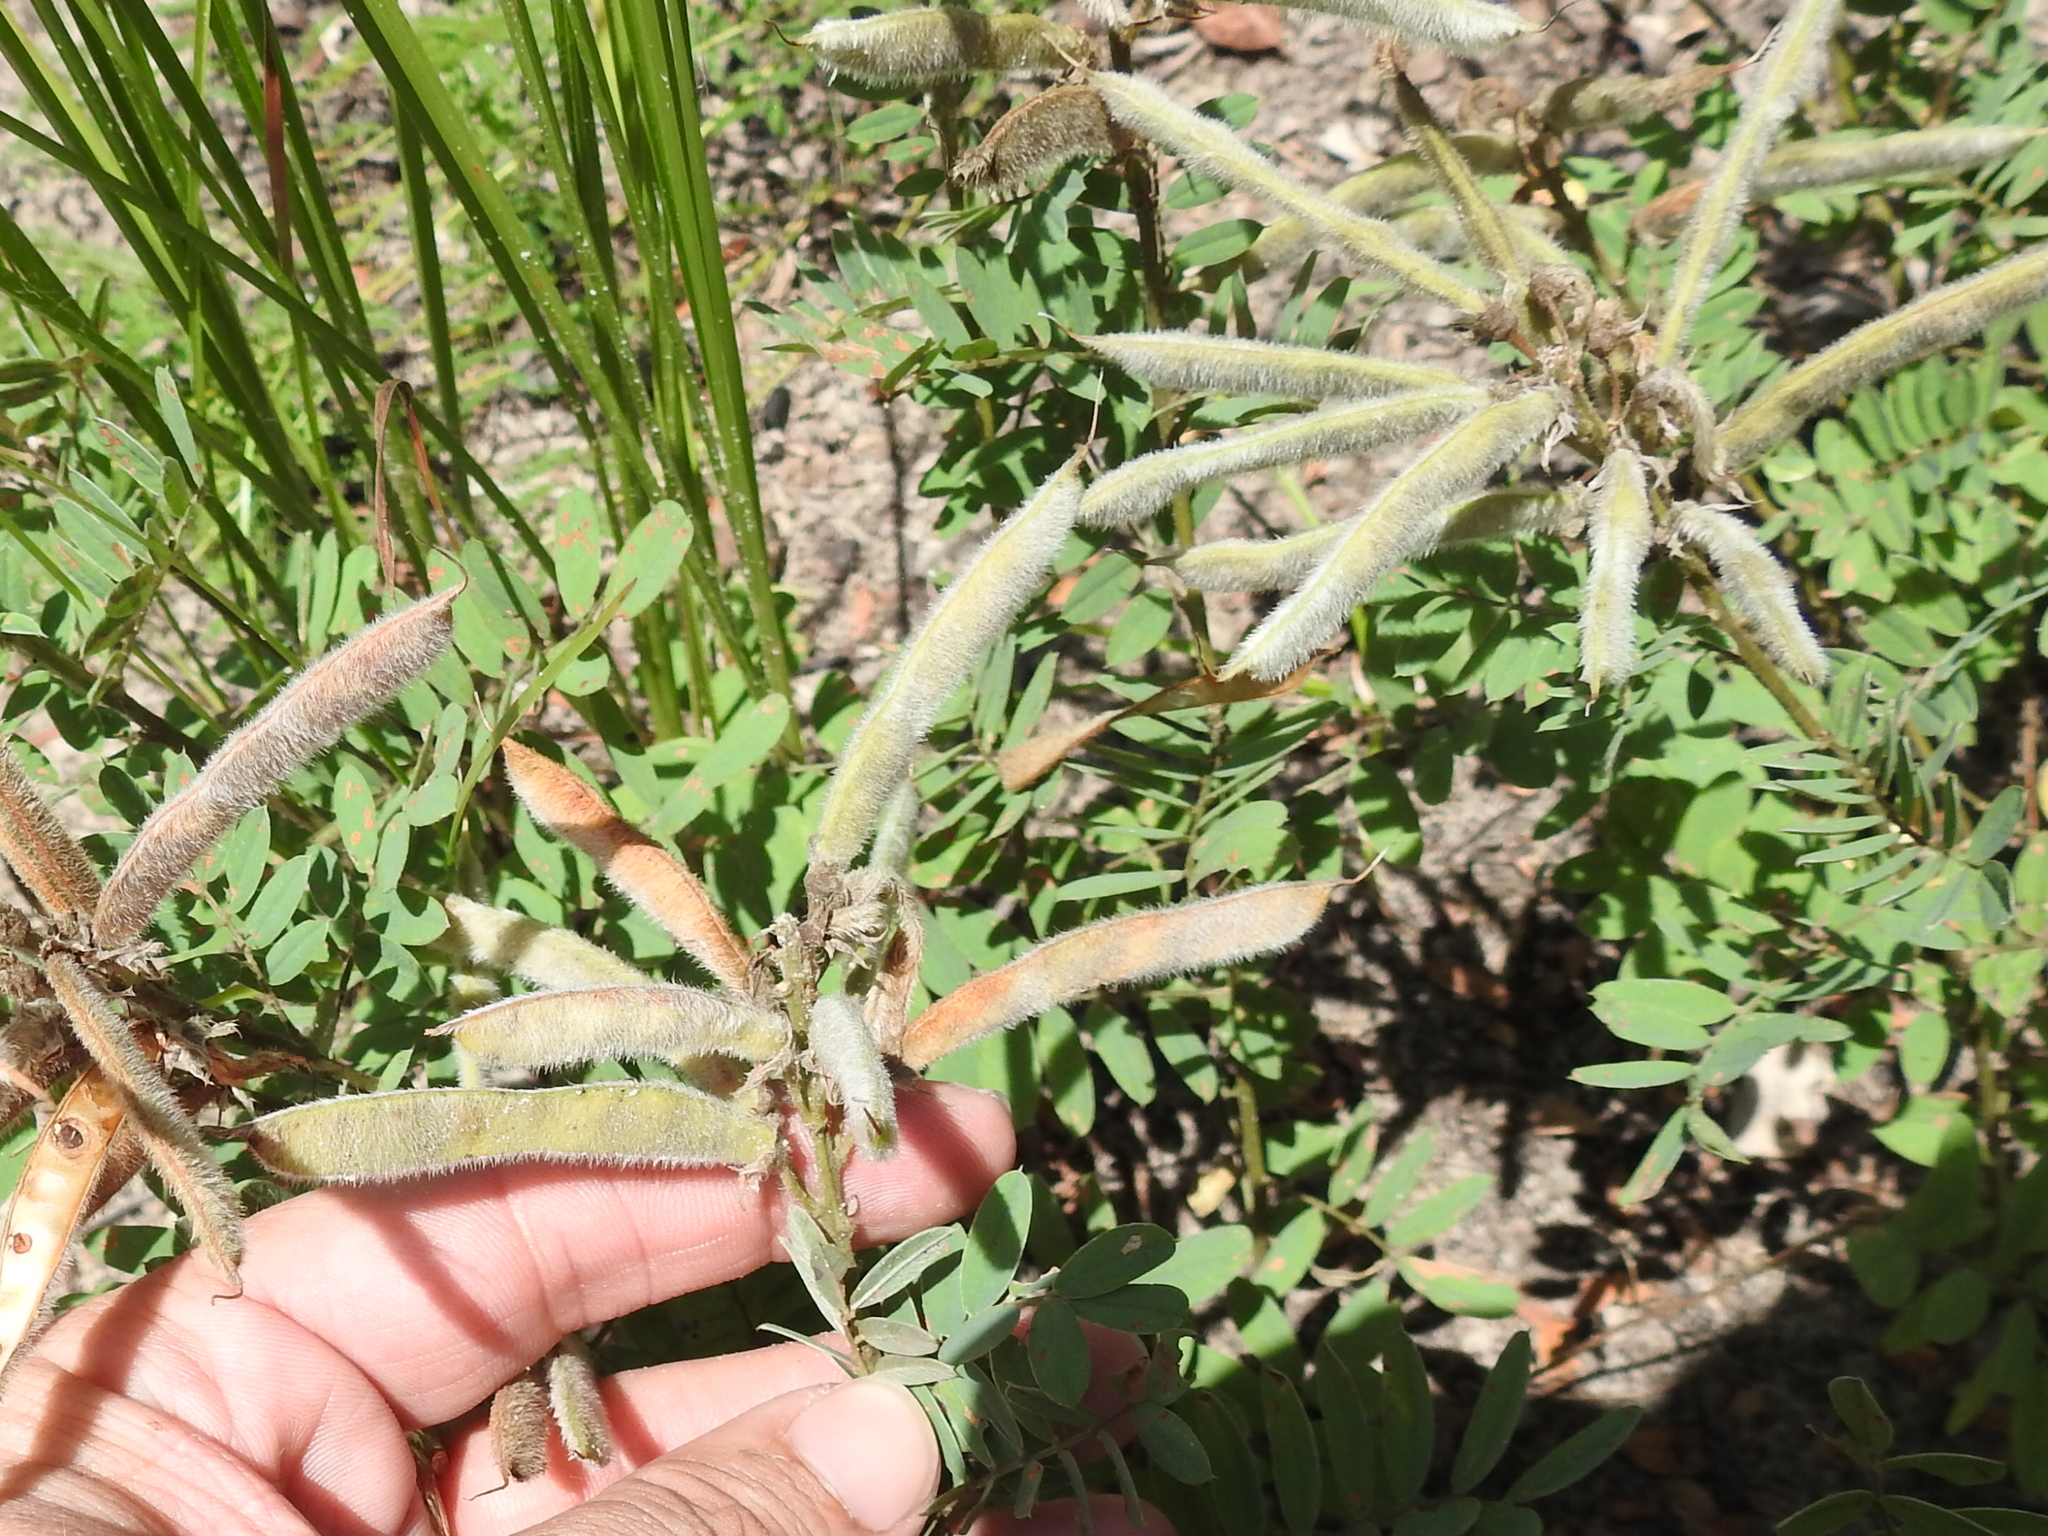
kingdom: Plantae
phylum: Tracheophyta
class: Magnoliopsida
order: Fabales
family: Fabaceae
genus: Tephrosia
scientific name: Tephrosia virginiana
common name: Rabbit-pea
